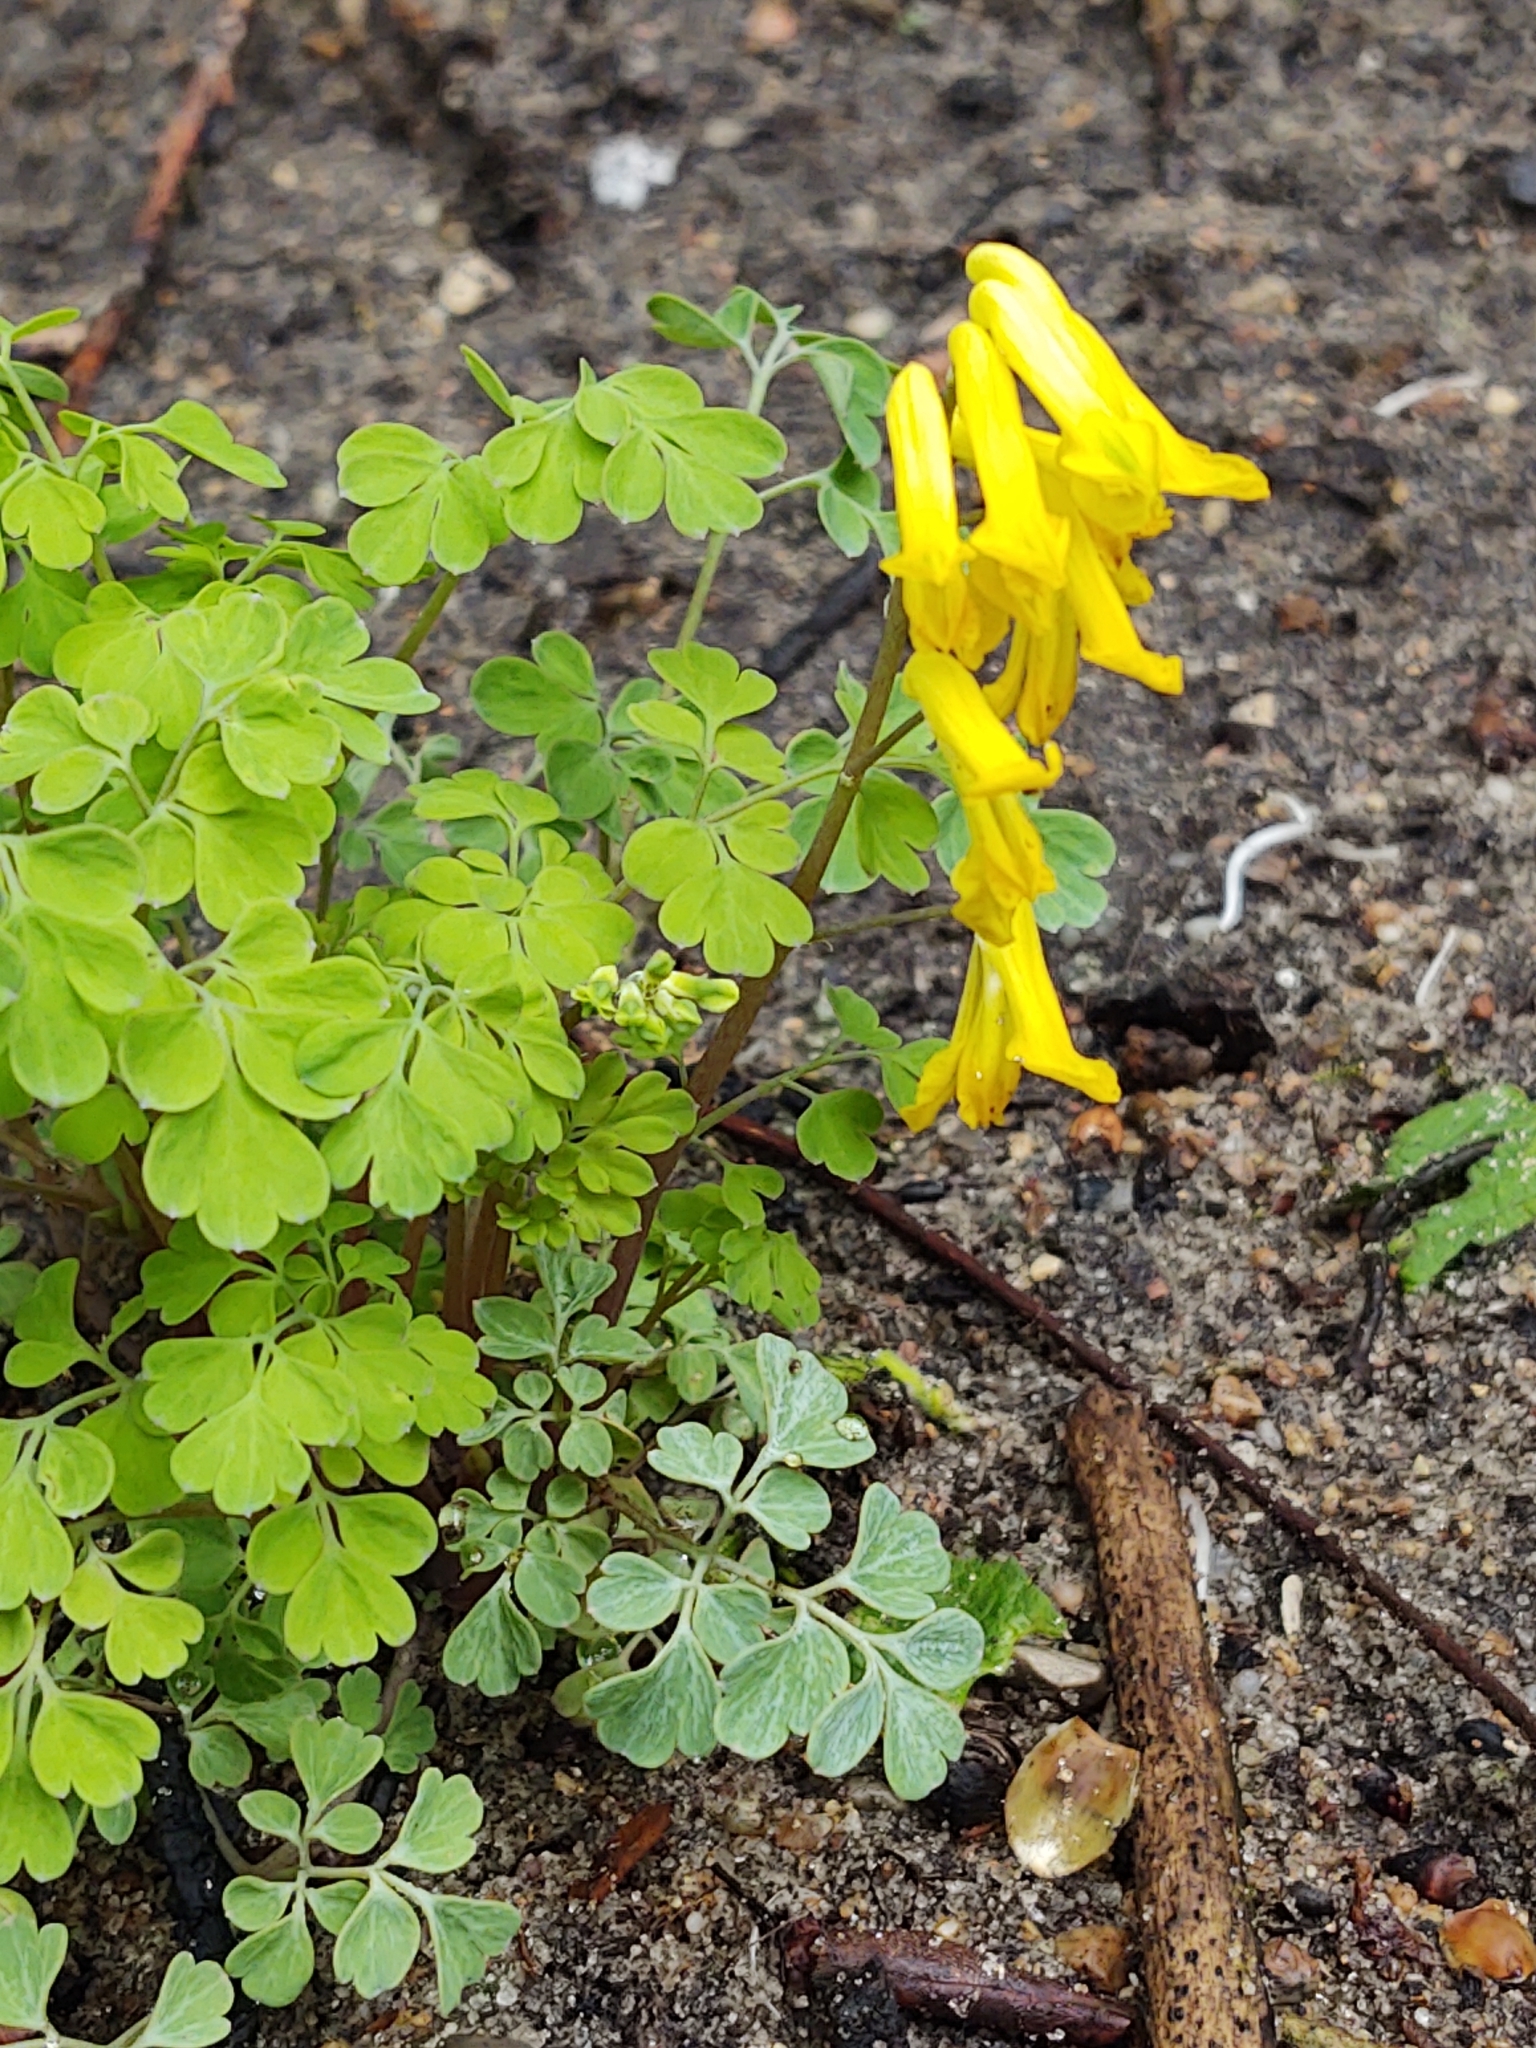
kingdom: Plantae
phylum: Tracheophyta
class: Magnoliopsida
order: Ranunculales
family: Papaveraceae
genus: Pseudofumaria
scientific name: Pseudofumaria lutea
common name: Yellow corydalis
